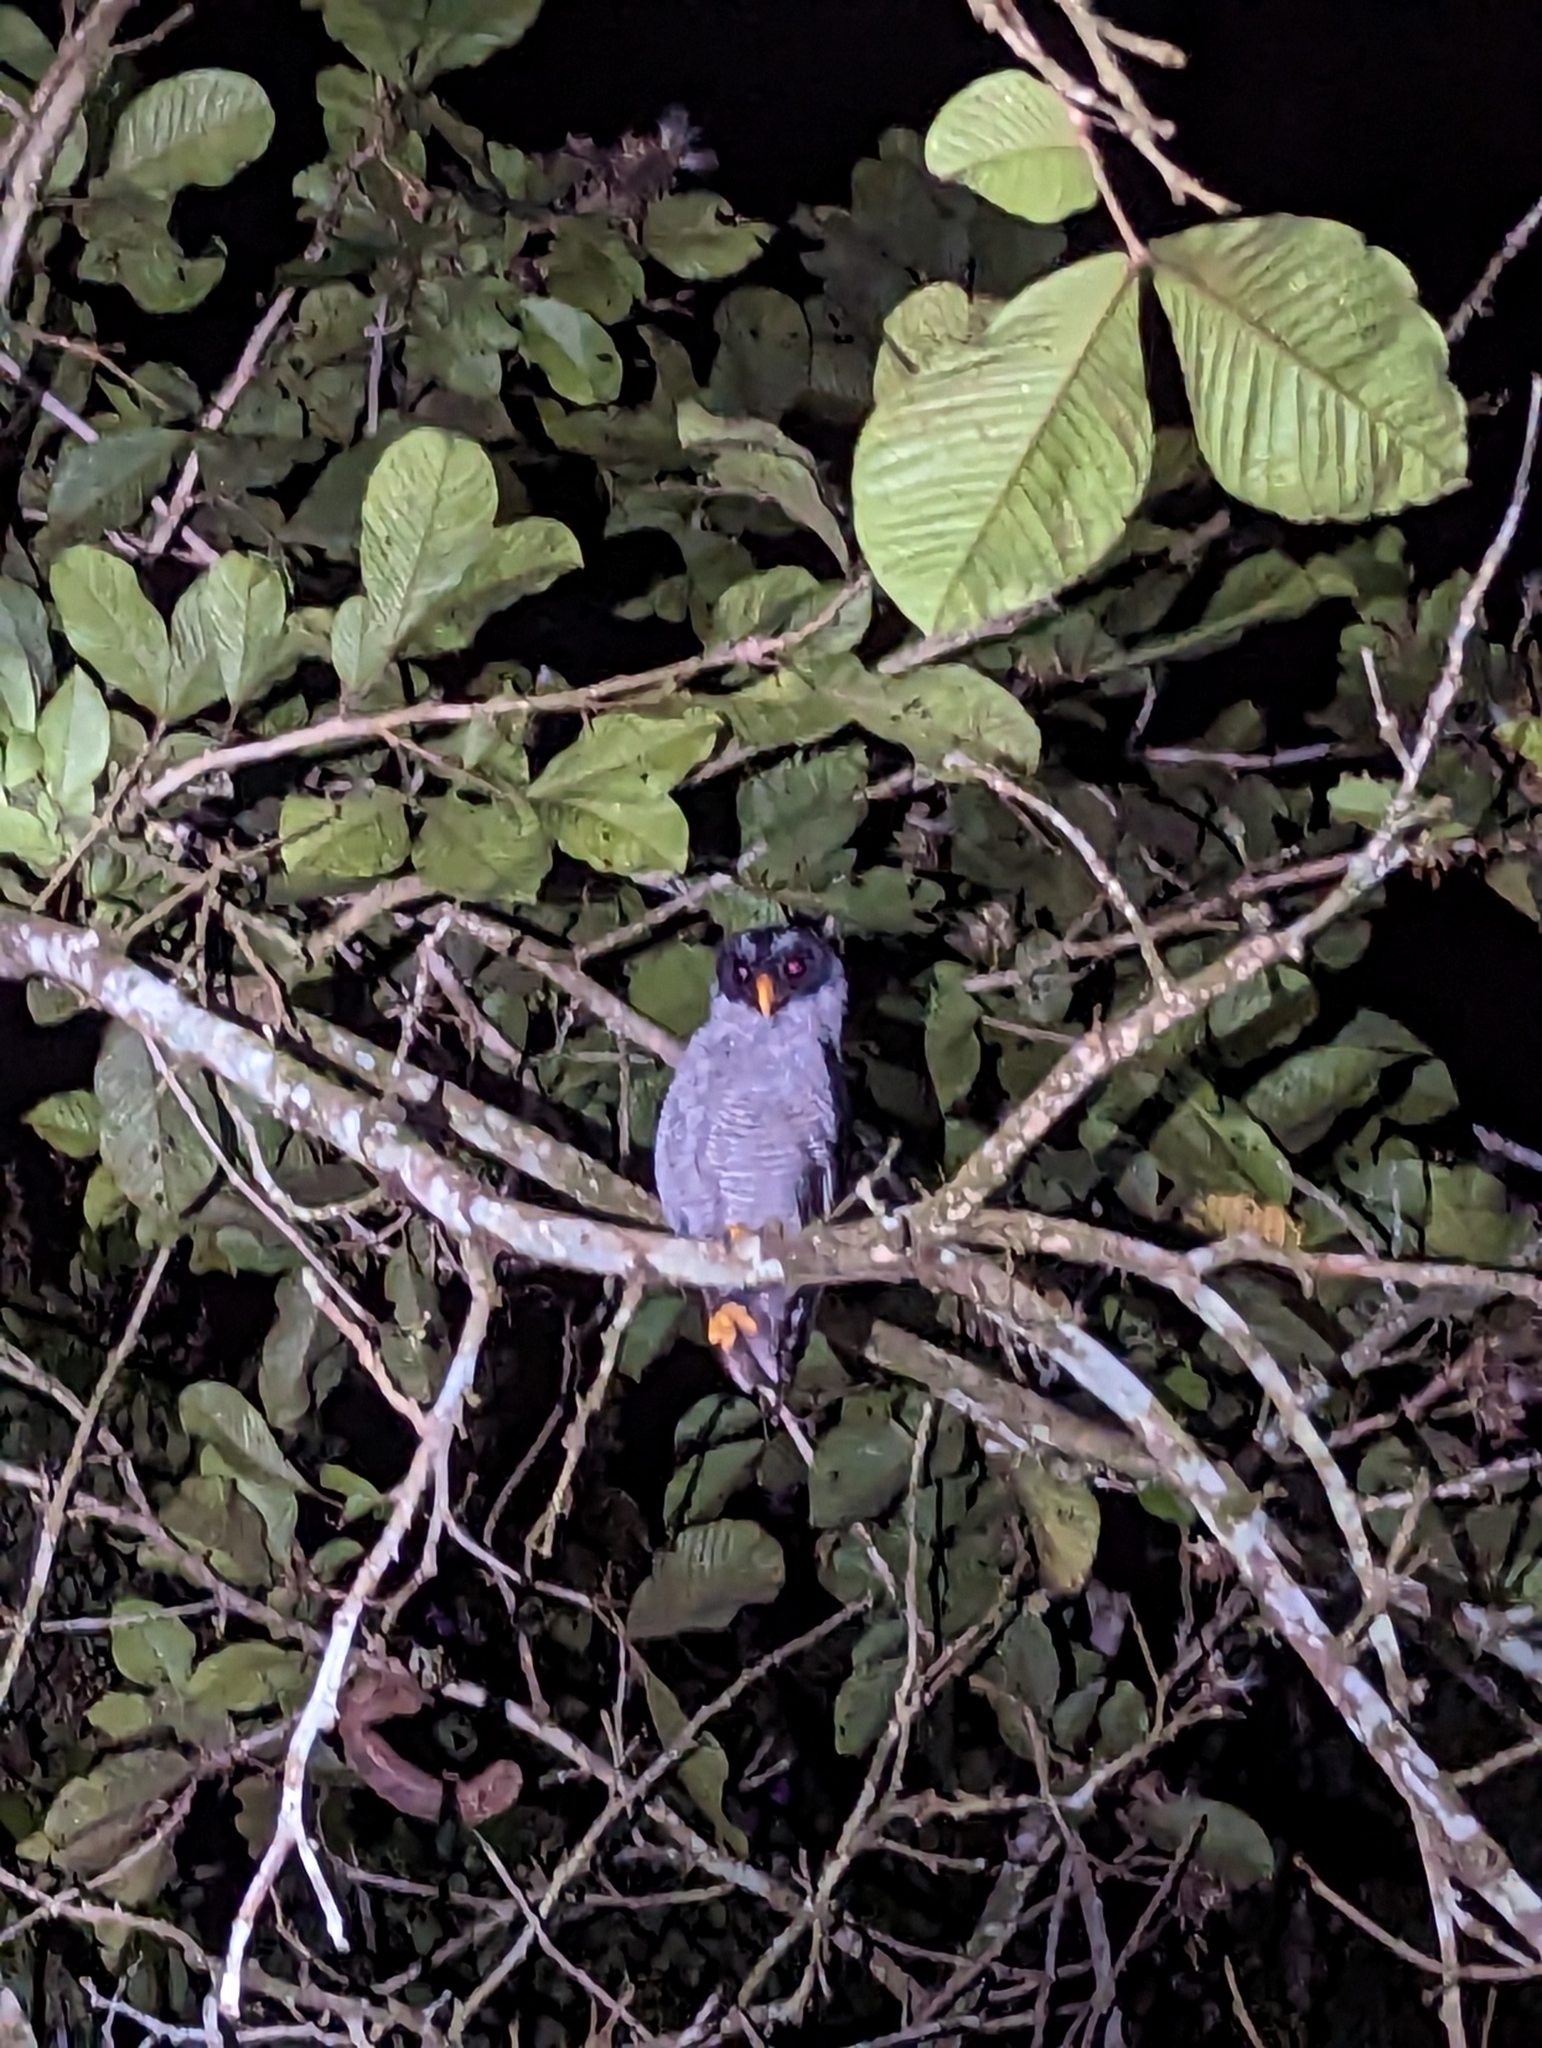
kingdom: Animalia
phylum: Chordata
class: Aves
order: Strigiformes
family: Strigidae
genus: Strix
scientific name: Strix nigrolineata
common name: Black-and-white owl
